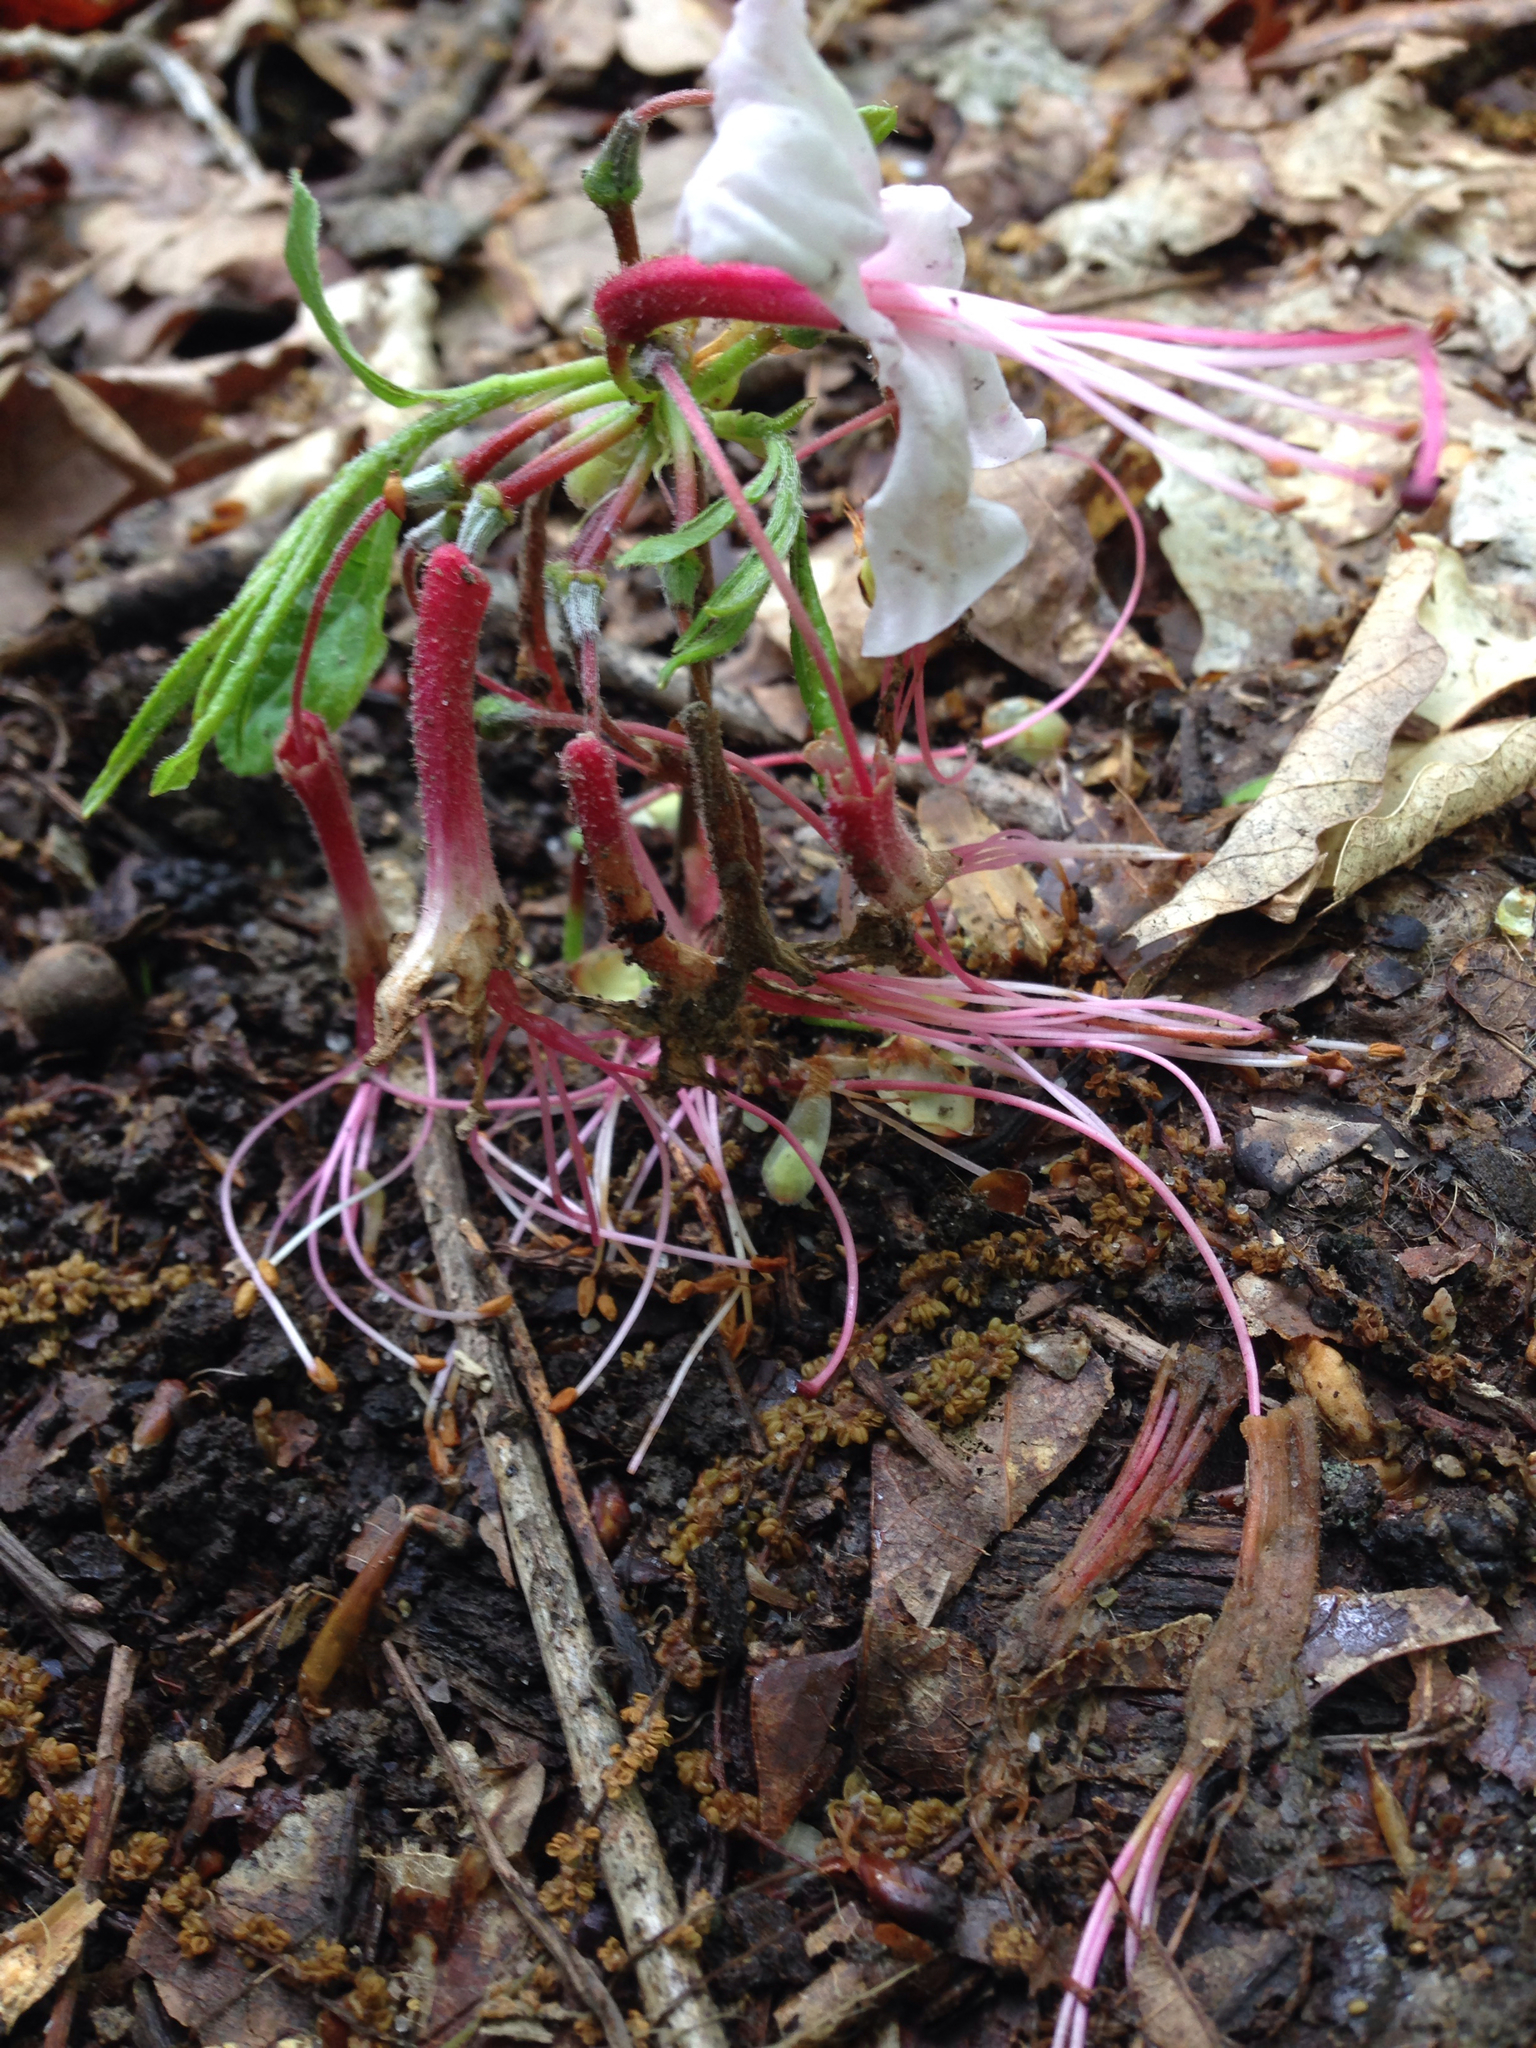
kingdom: Plantae
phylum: Tracheophyta
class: Magnoliopsida
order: Ericales
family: Ericaceae
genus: Rhododendron
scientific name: Rhododendron periclymenoides
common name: Election-pink
